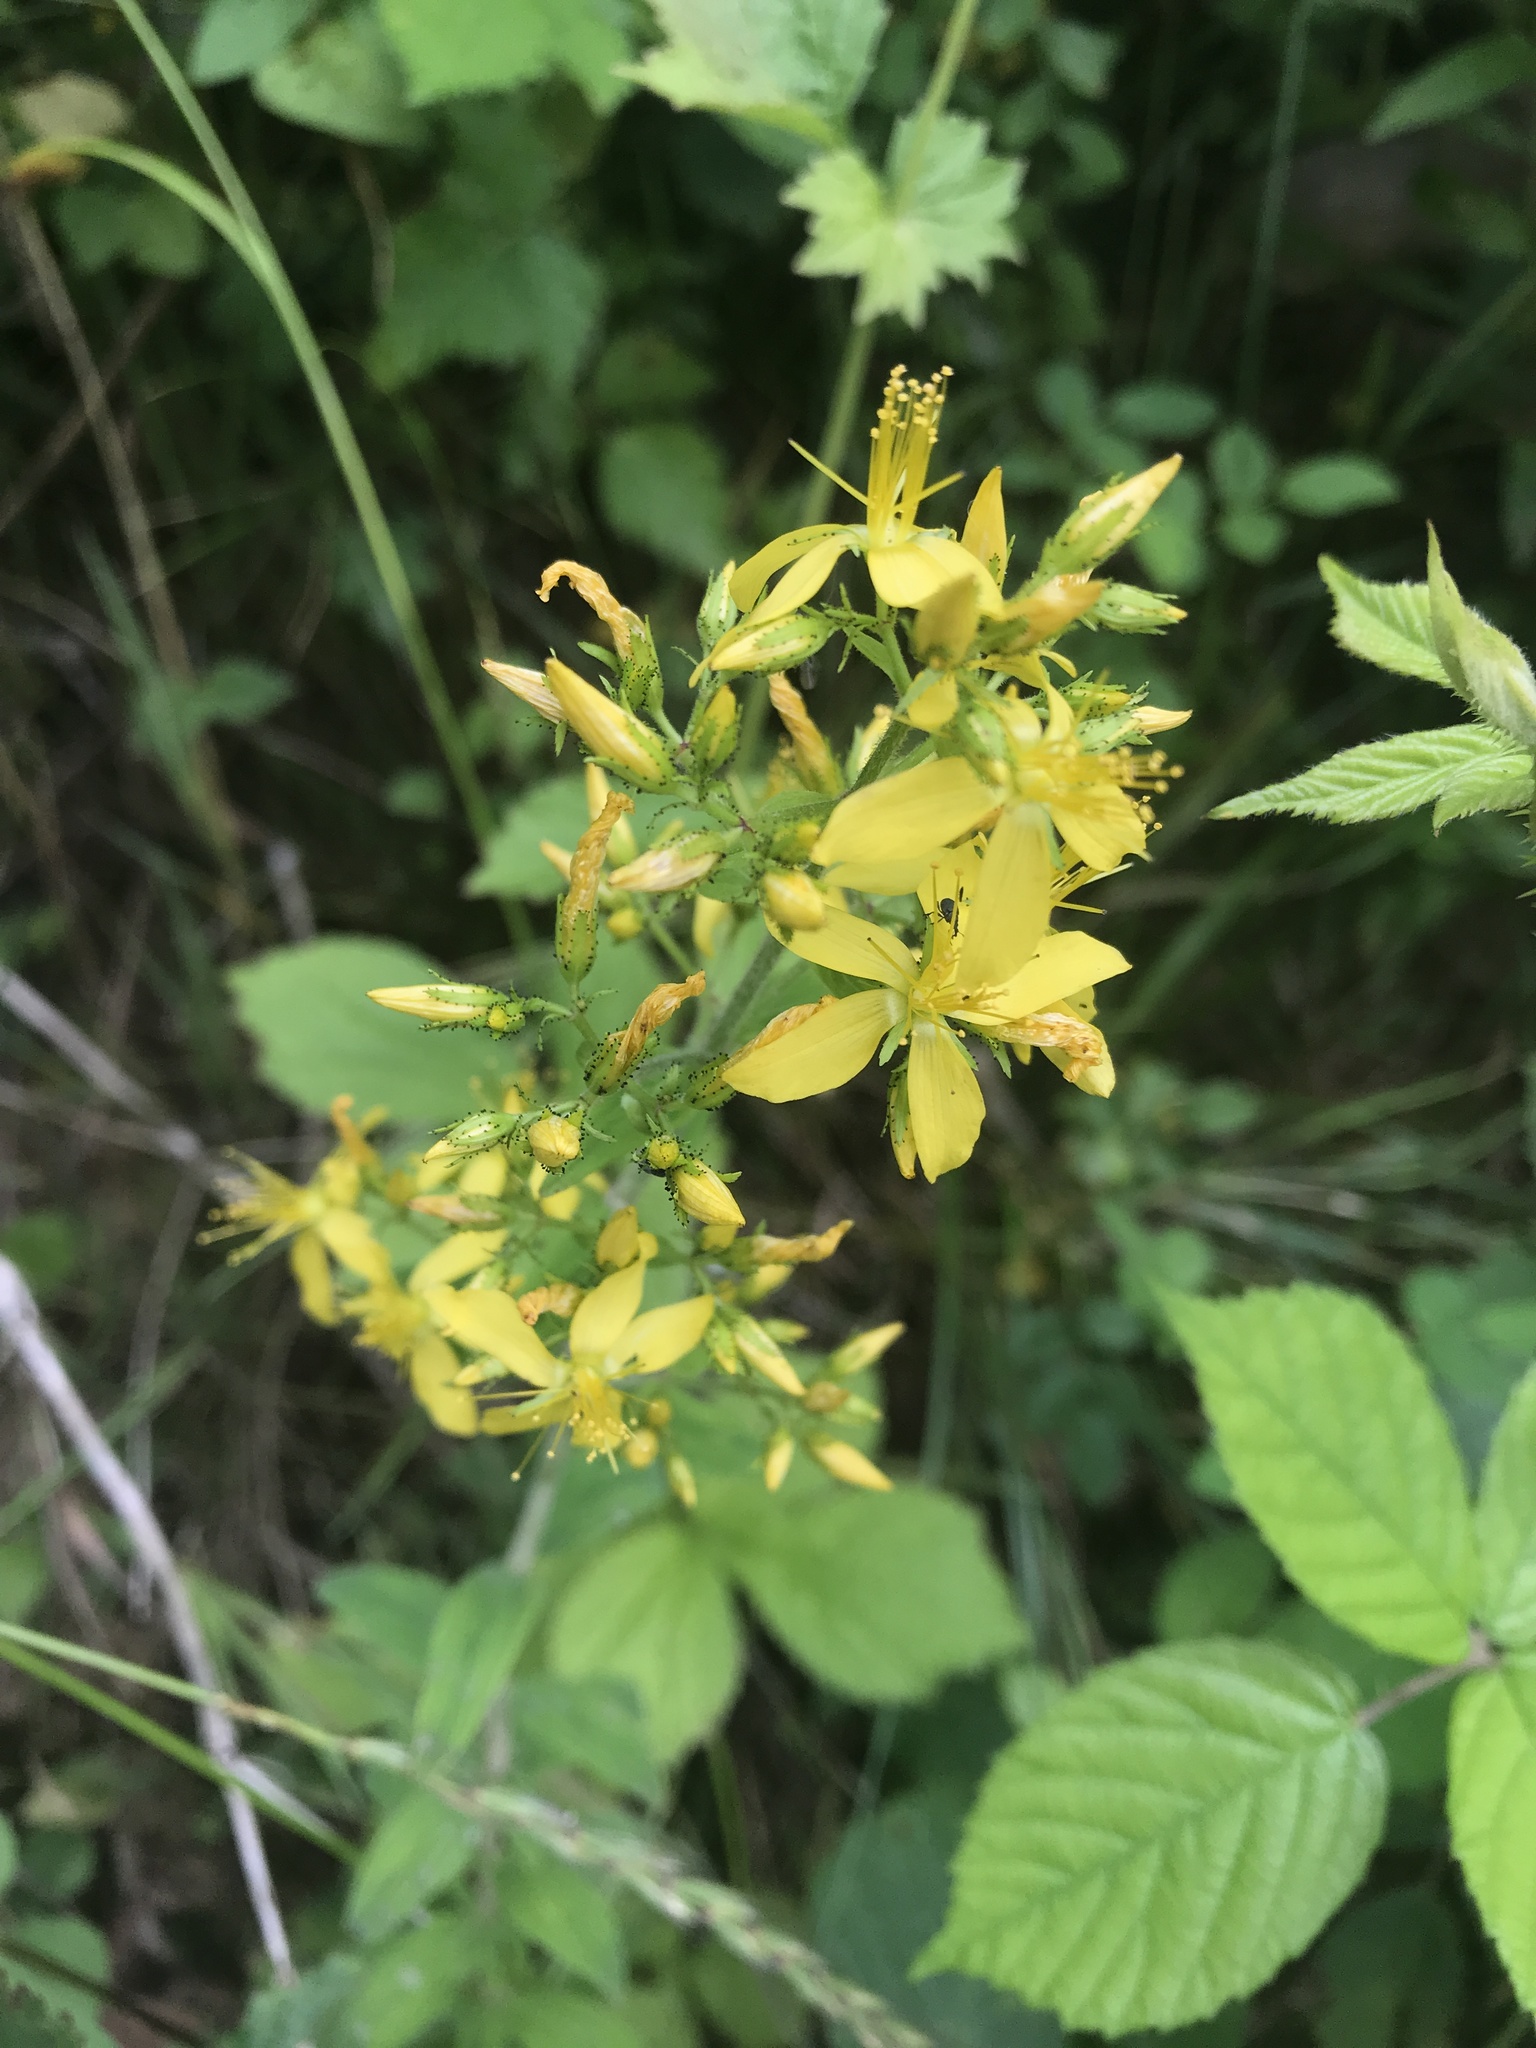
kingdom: Plantae
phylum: Tracheophyta
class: Magnoliopsida
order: Malpighiales
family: Hypericaceae
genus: Hypericum
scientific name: Hypericum hirsutum
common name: Hairy st. john's-wort
